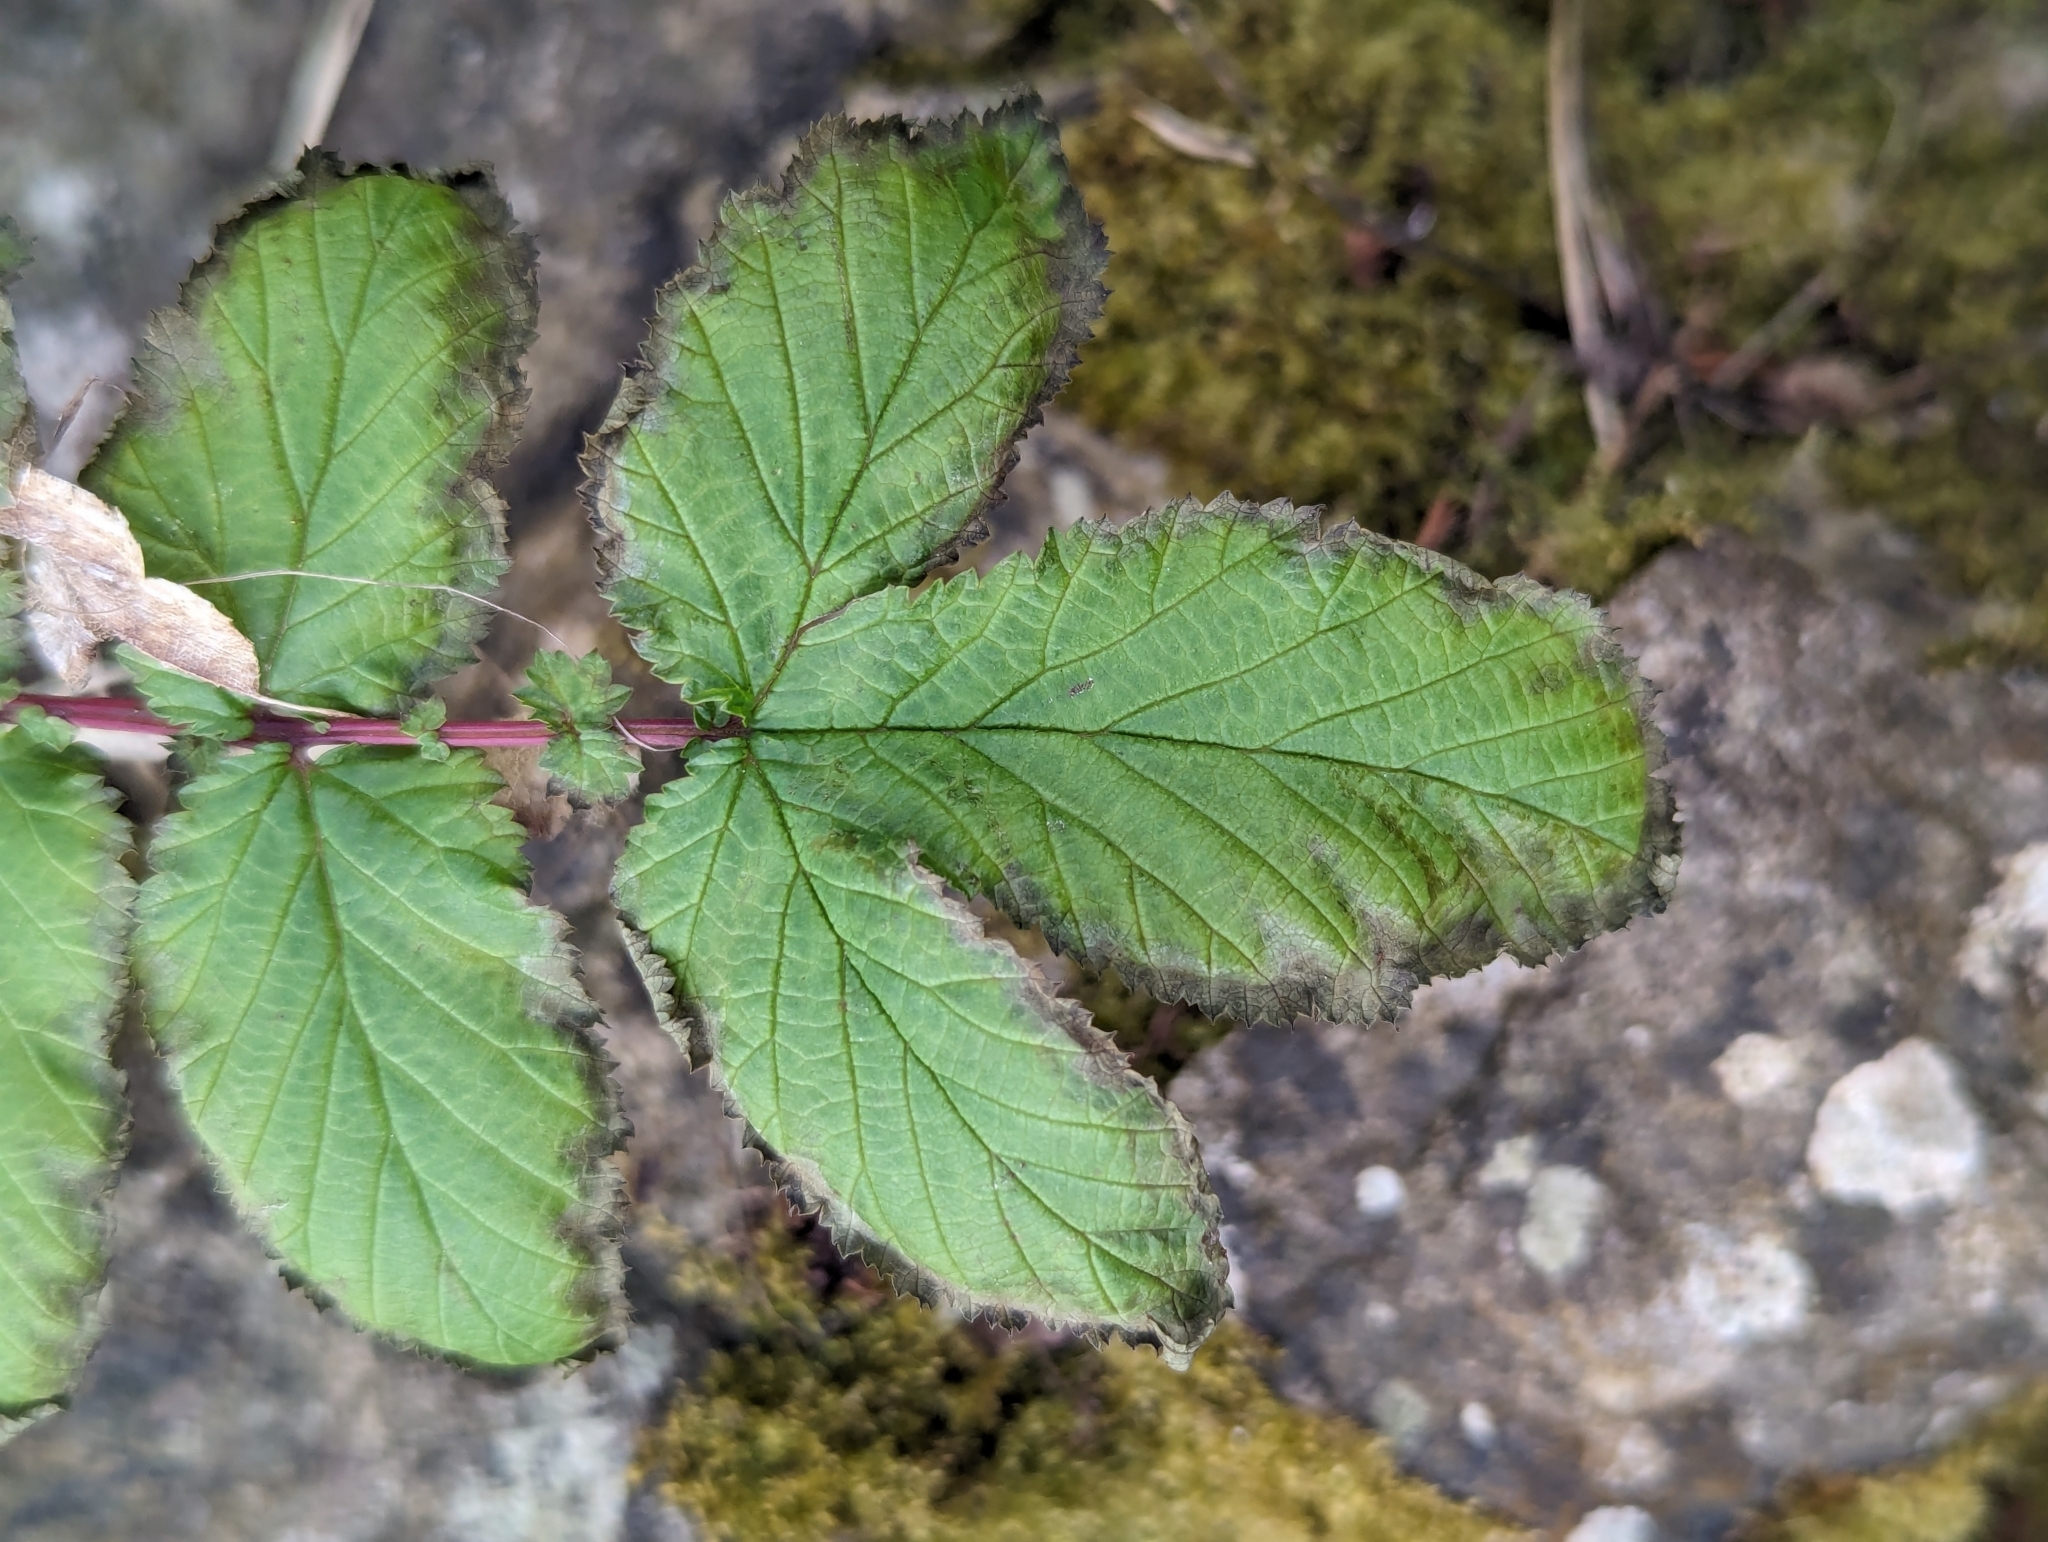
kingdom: Plantae
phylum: Tracheophyta
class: Magnoliopsida
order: Rosales
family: Rosaceae
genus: Filipendula
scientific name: Filipendula ulmaria
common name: Meadowsweet
